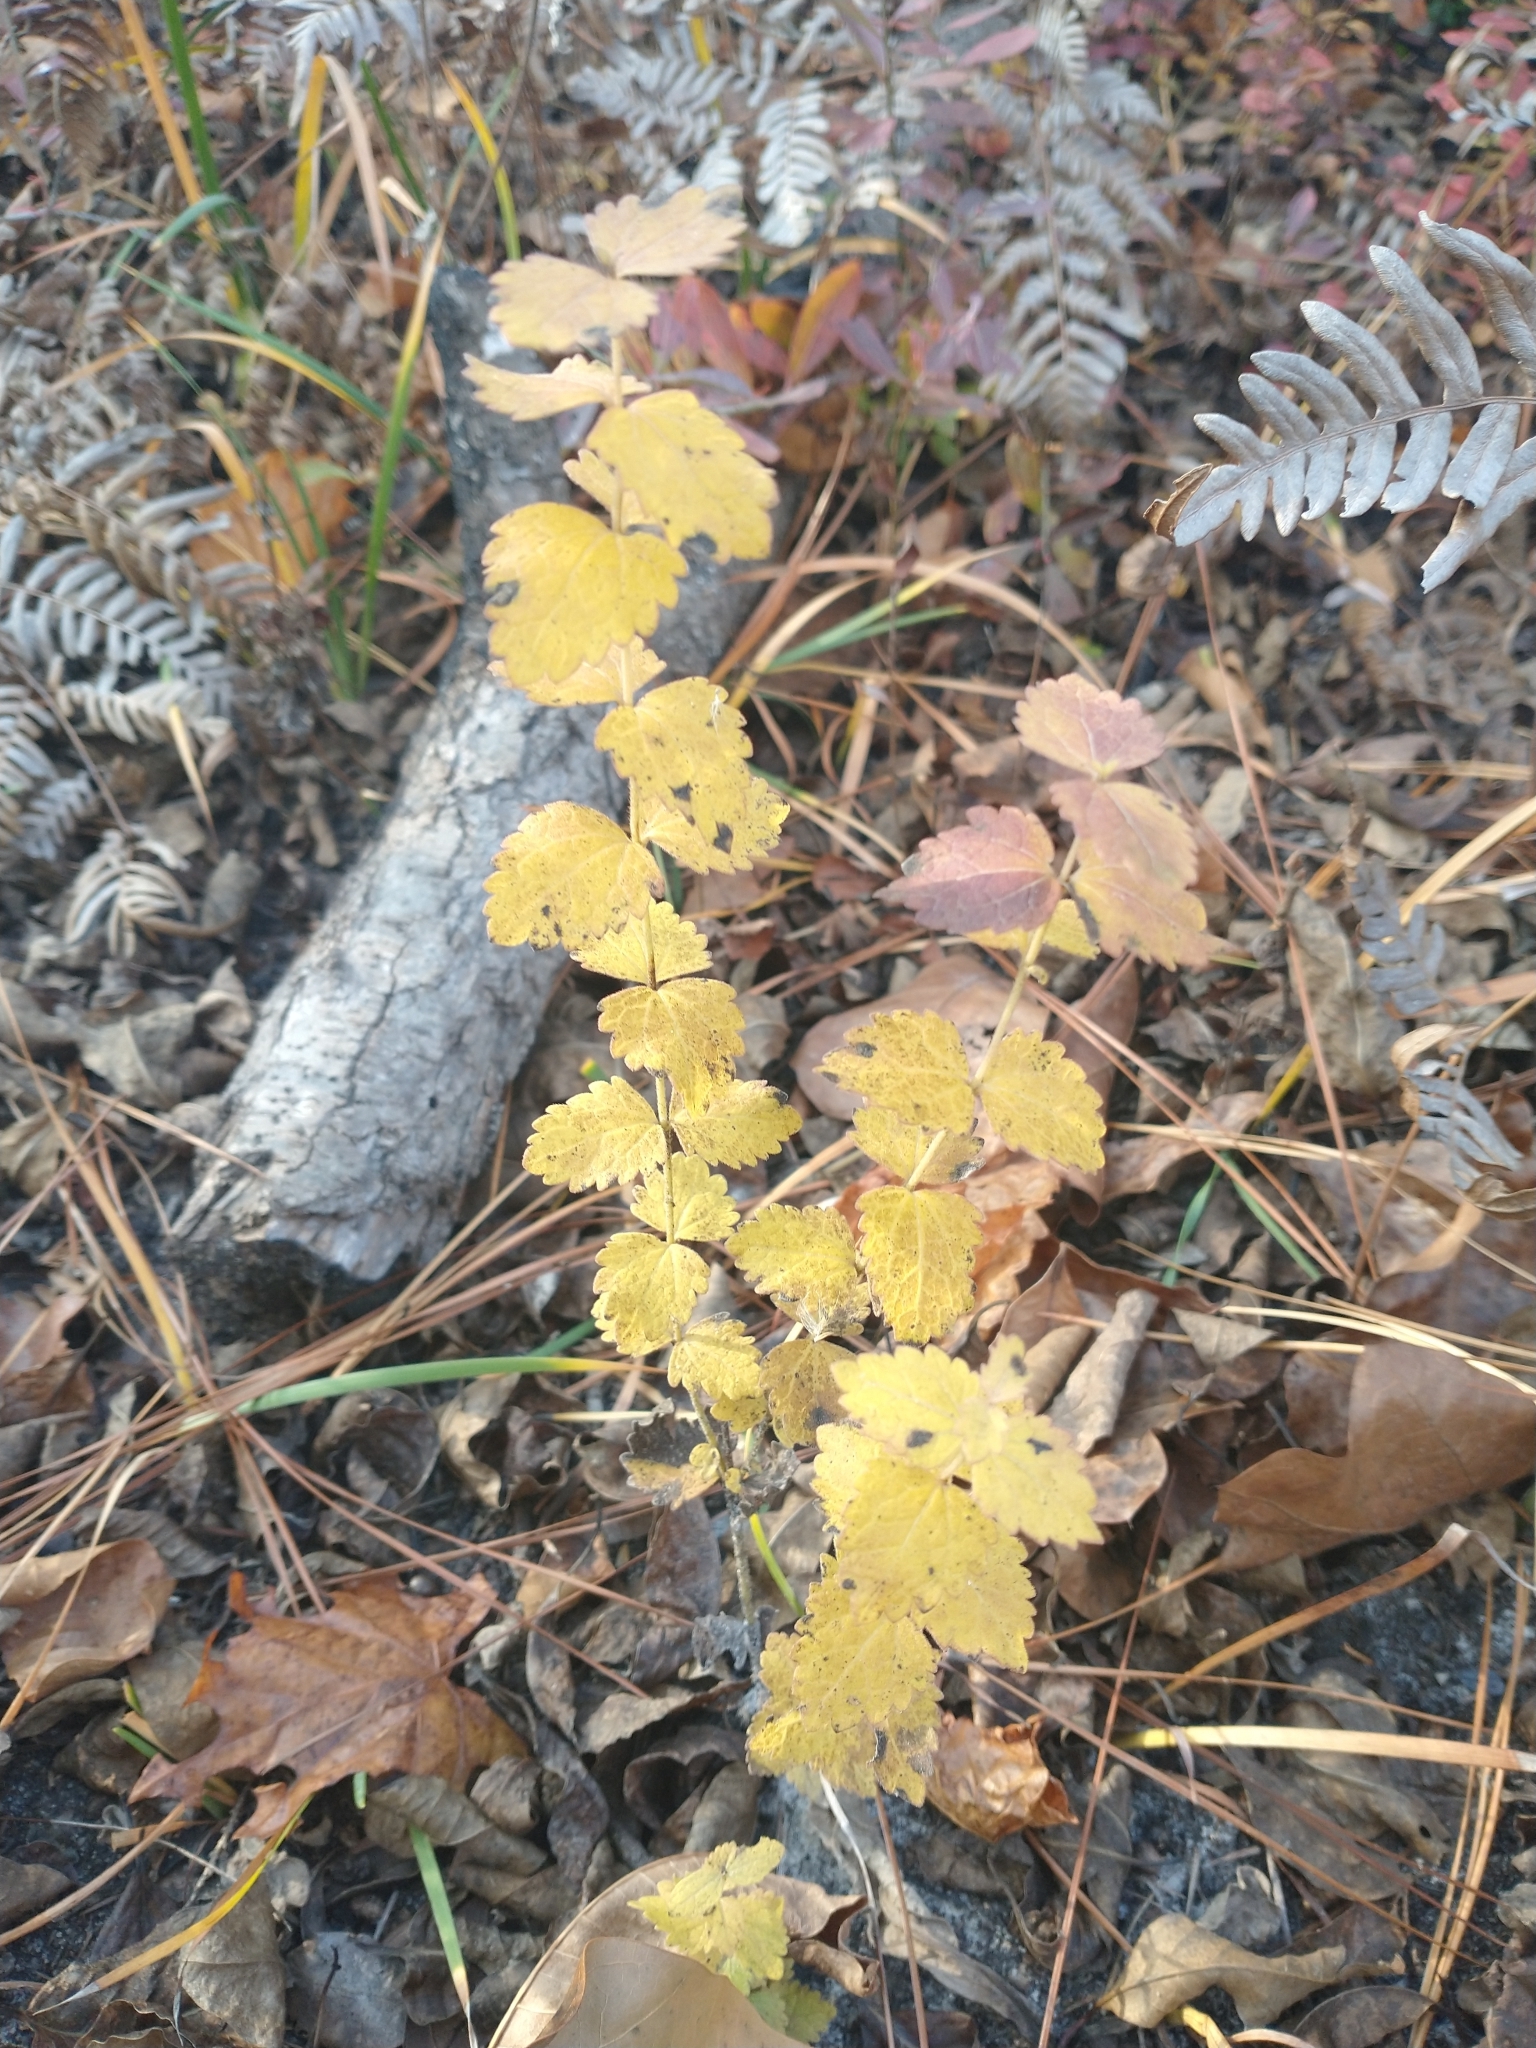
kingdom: Plantae
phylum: Tracheophyta
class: Magnoliopsida
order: Asterales
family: Asteraceae
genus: Eupatorium
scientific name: Eupatorium rotundifolium
